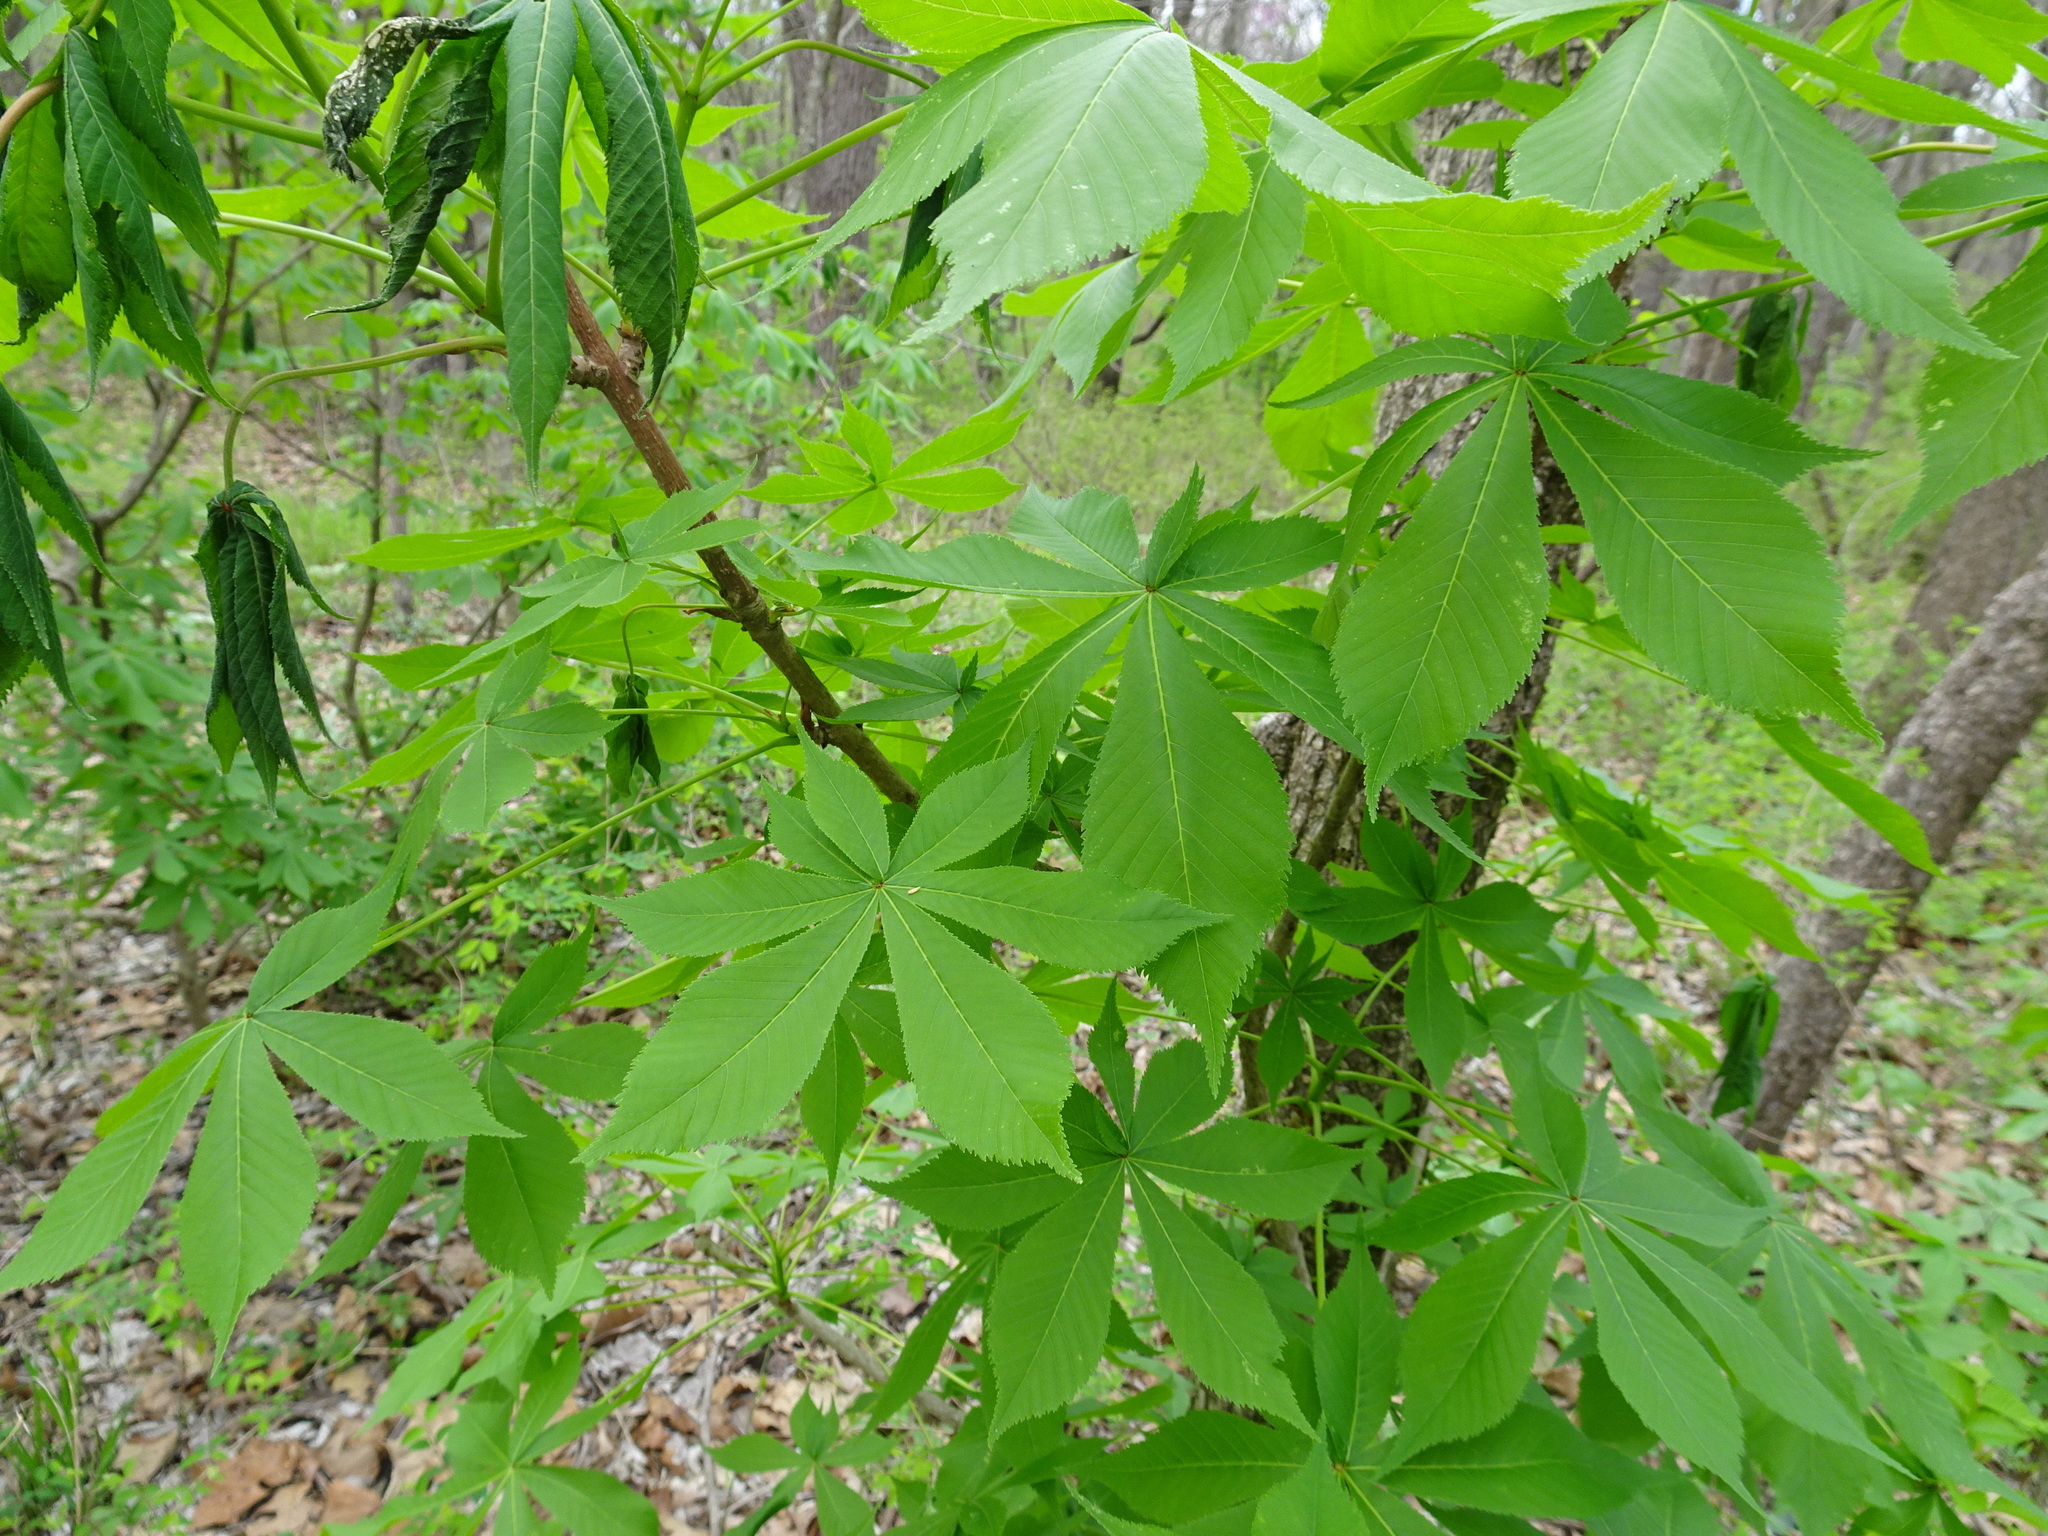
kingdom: Plantae
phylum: Tracheophyta
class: Magnoliopsida
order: Sapindales
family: Sapindaceae
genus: Aesculus
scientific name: Aesculus glabra
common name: Ohio buckeye
